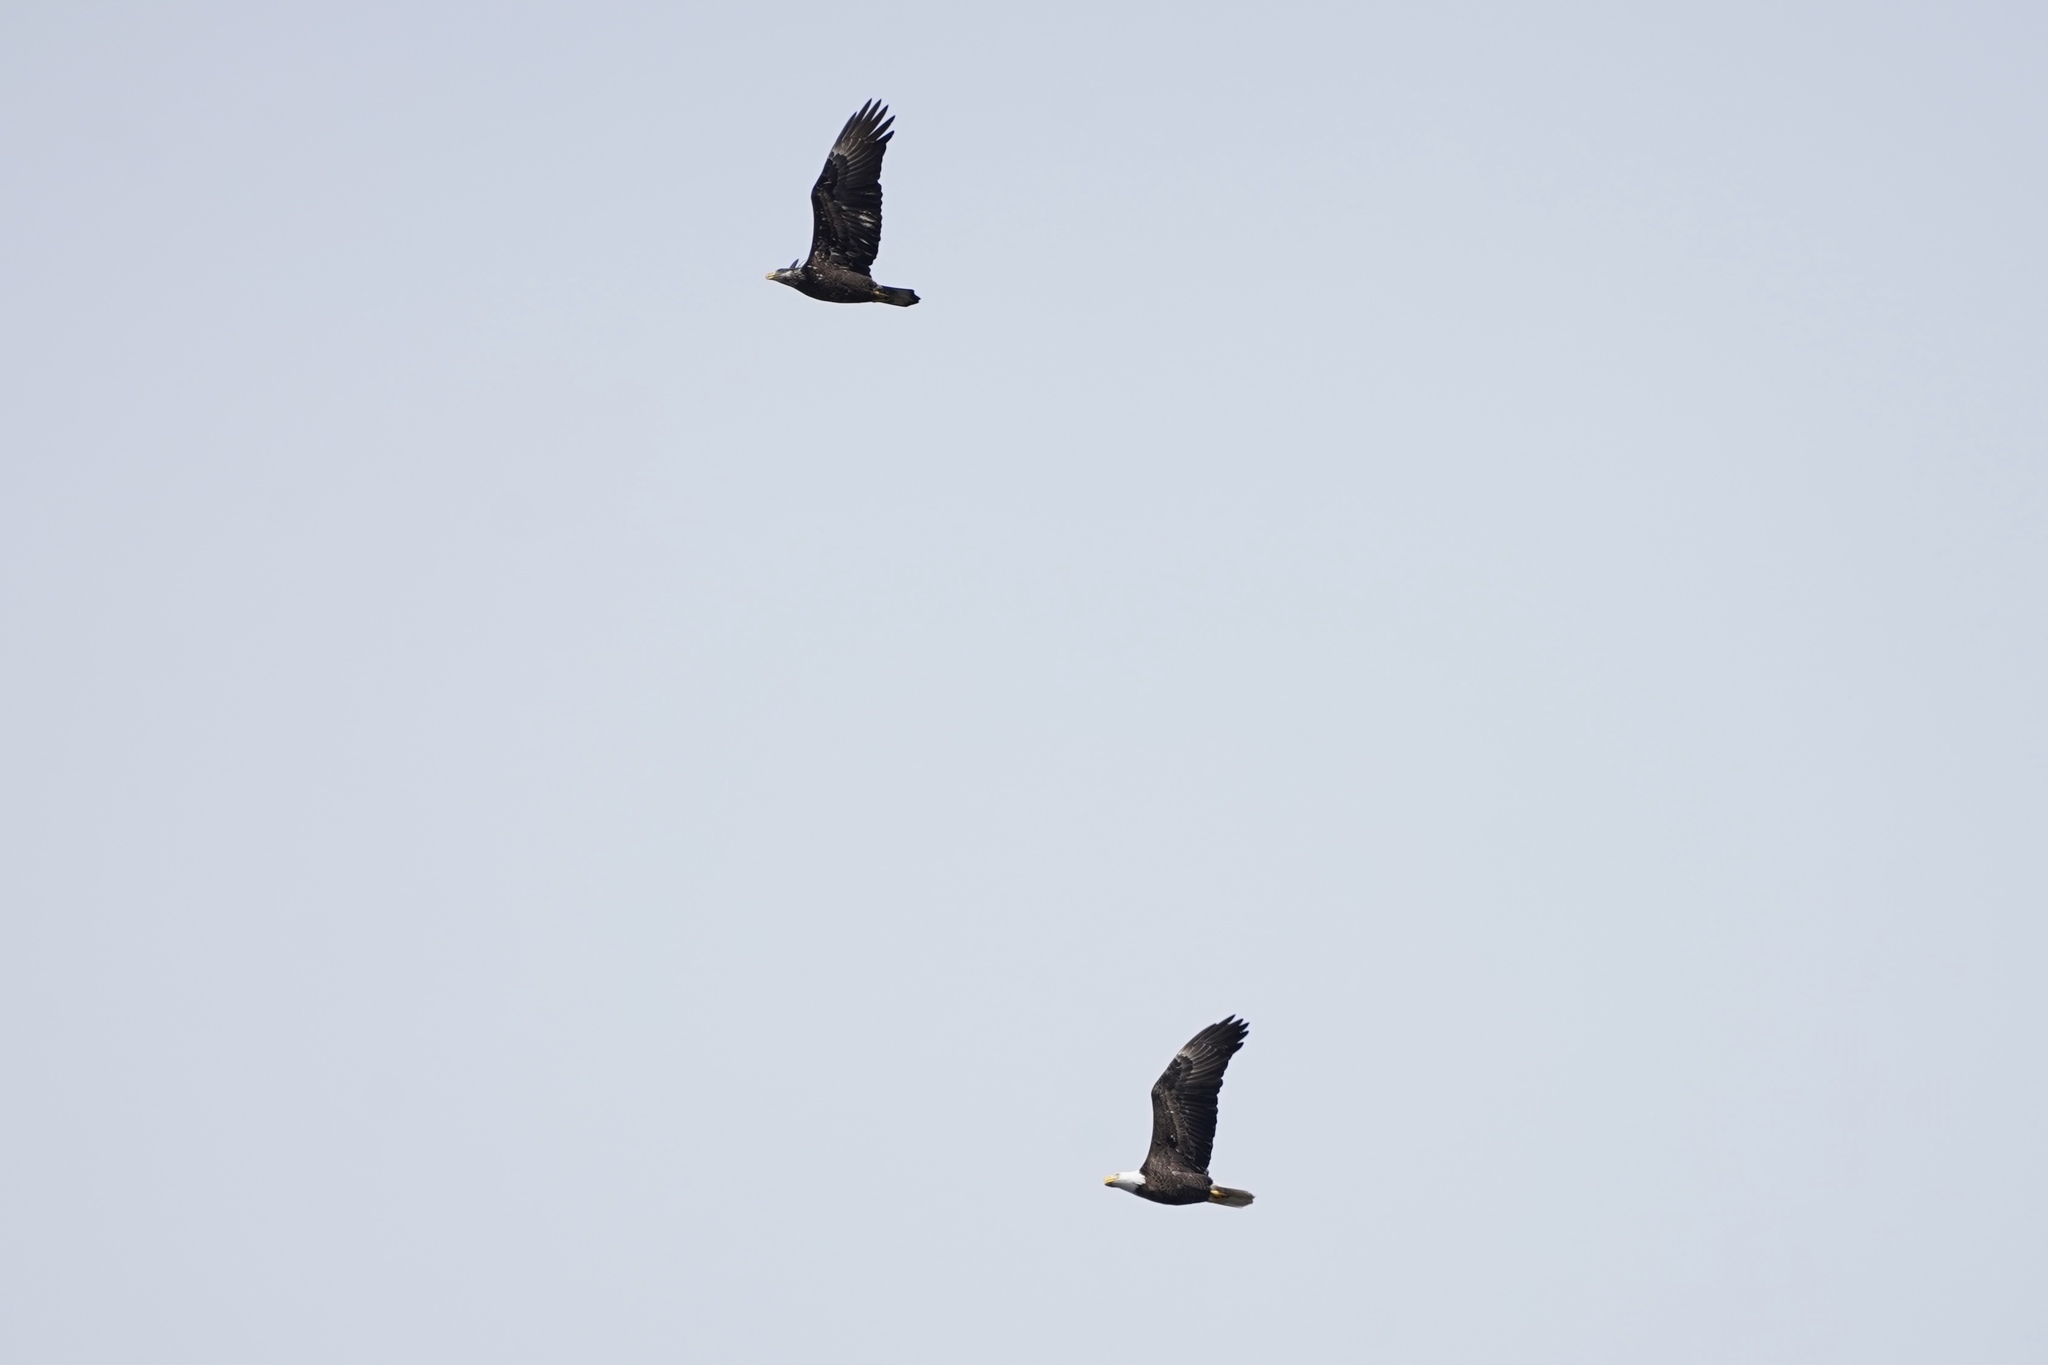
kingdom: Animalia
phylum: Chordata
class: Aves
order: Accipitriformes
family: Accipitridae
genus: Haliaeetus
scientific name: Haliaeetus leucocephalus
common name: Bald eagle
